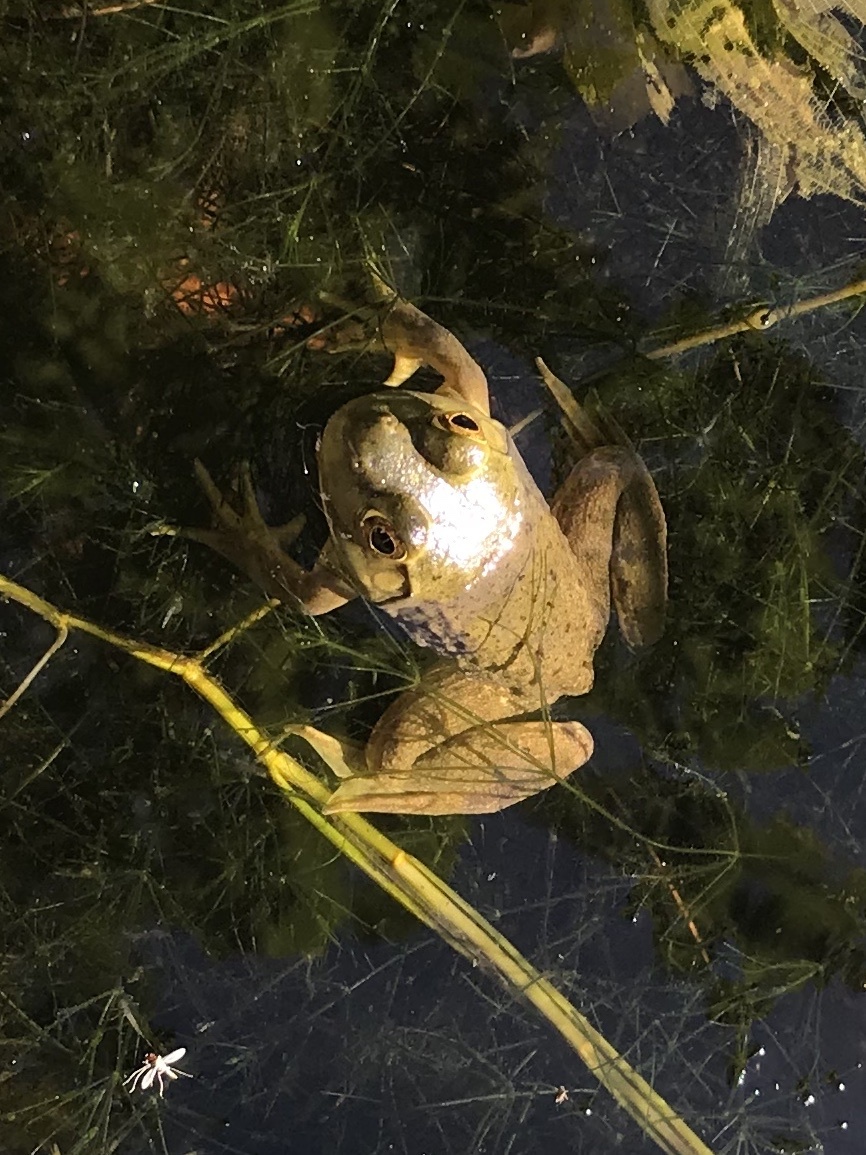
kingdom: Animalia
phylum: Chordata
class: Amphibia
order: Anura
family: Ranidae
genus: Lithobates
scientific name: Lithobates catesbeianus
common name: American bullfrog
